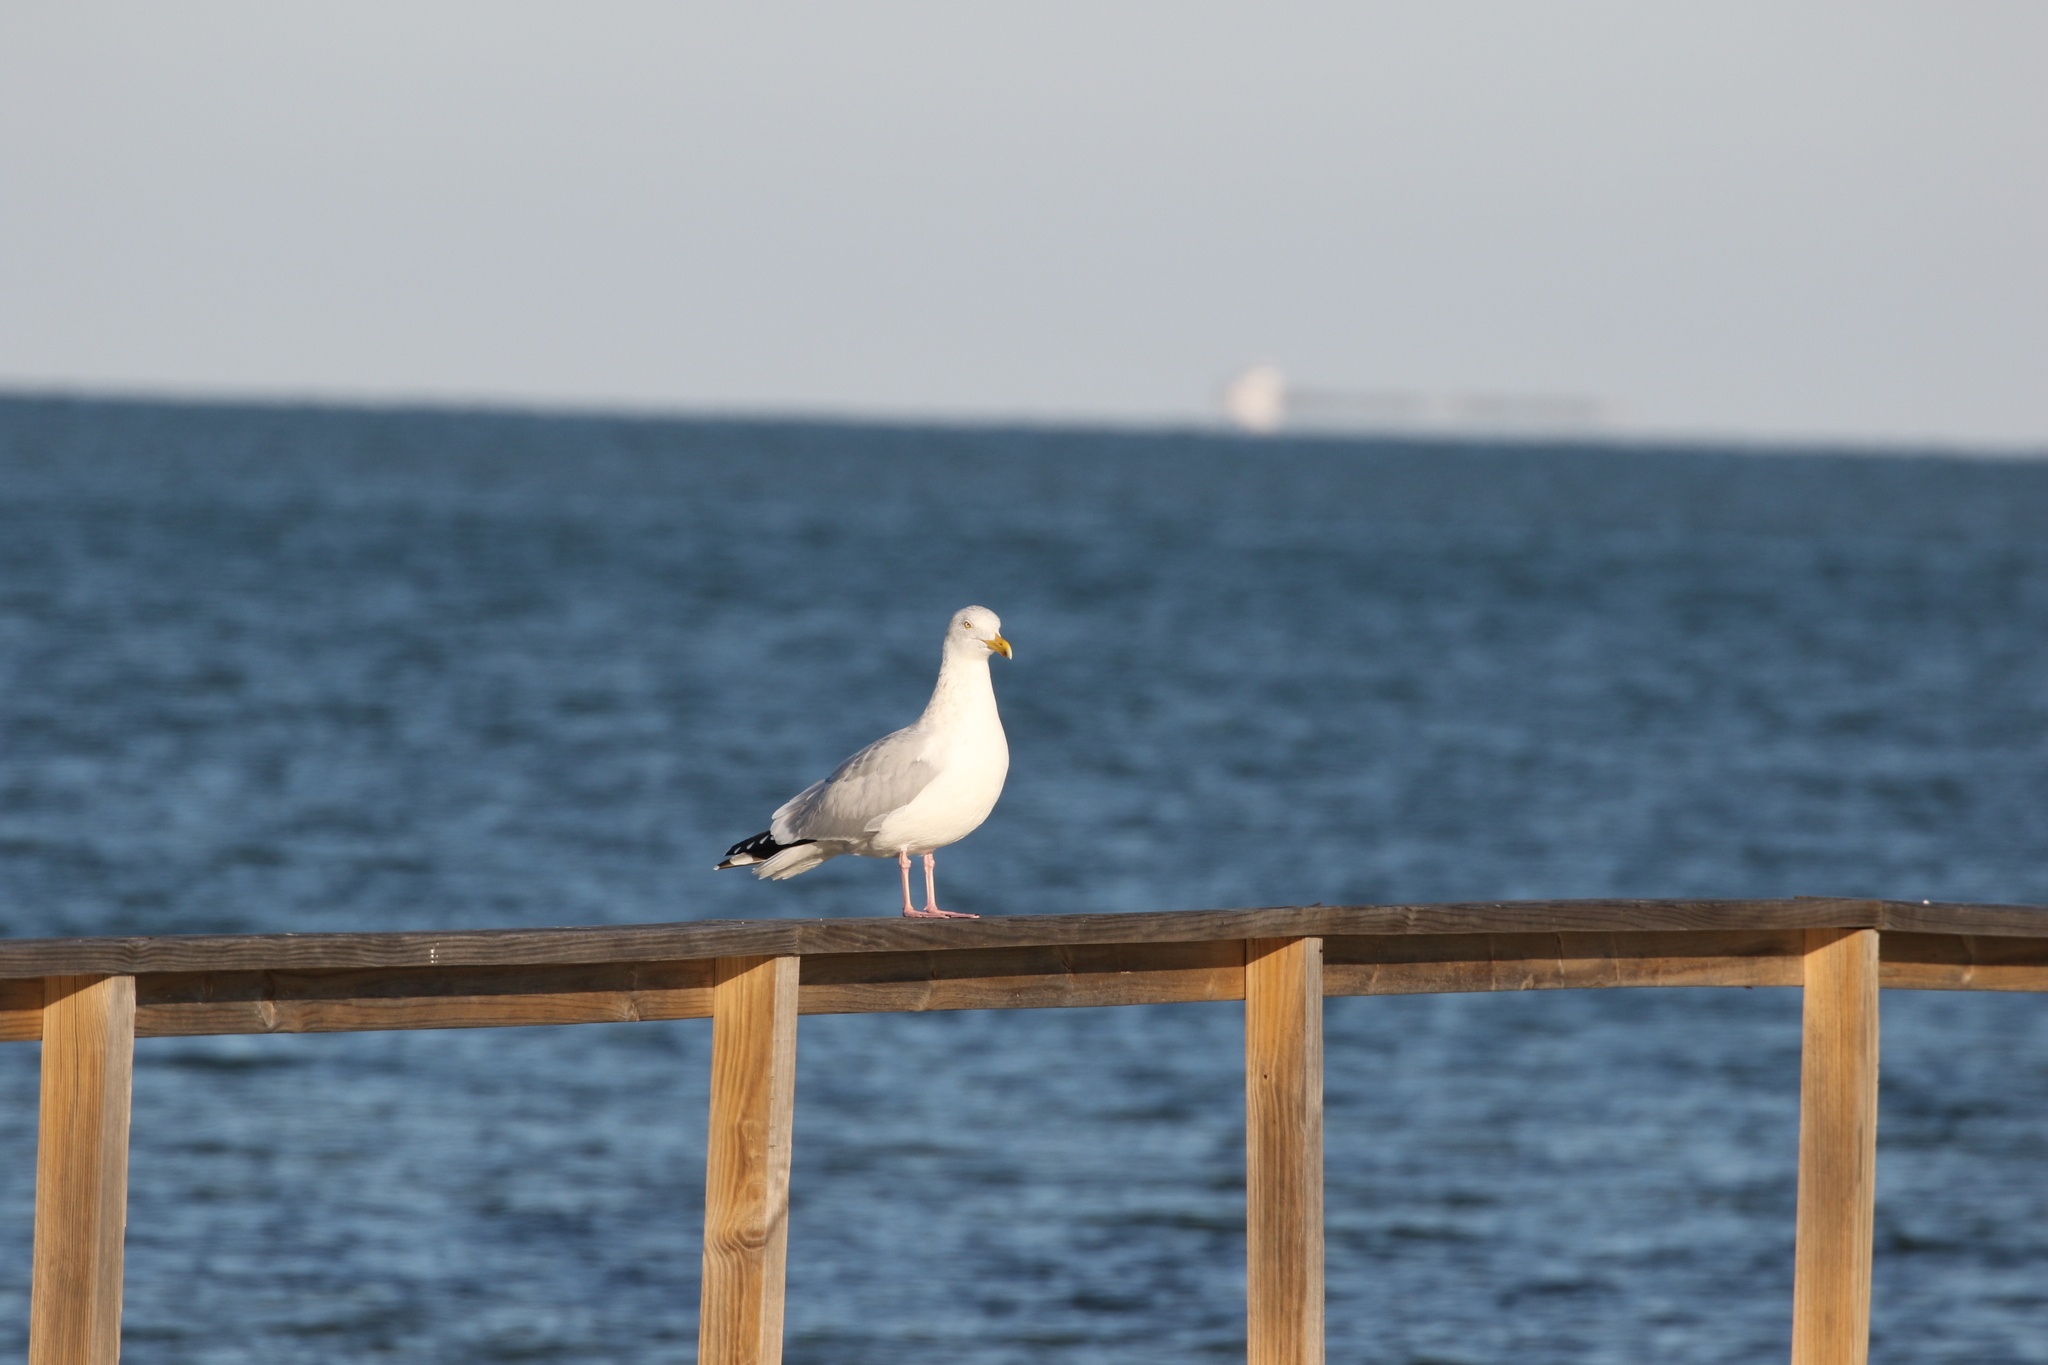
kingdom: Animalia
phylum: Chordata
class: Aves
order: Charadriiformes
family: Laridae
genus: Larus
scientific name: Larus argentatus
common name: Herring gull
